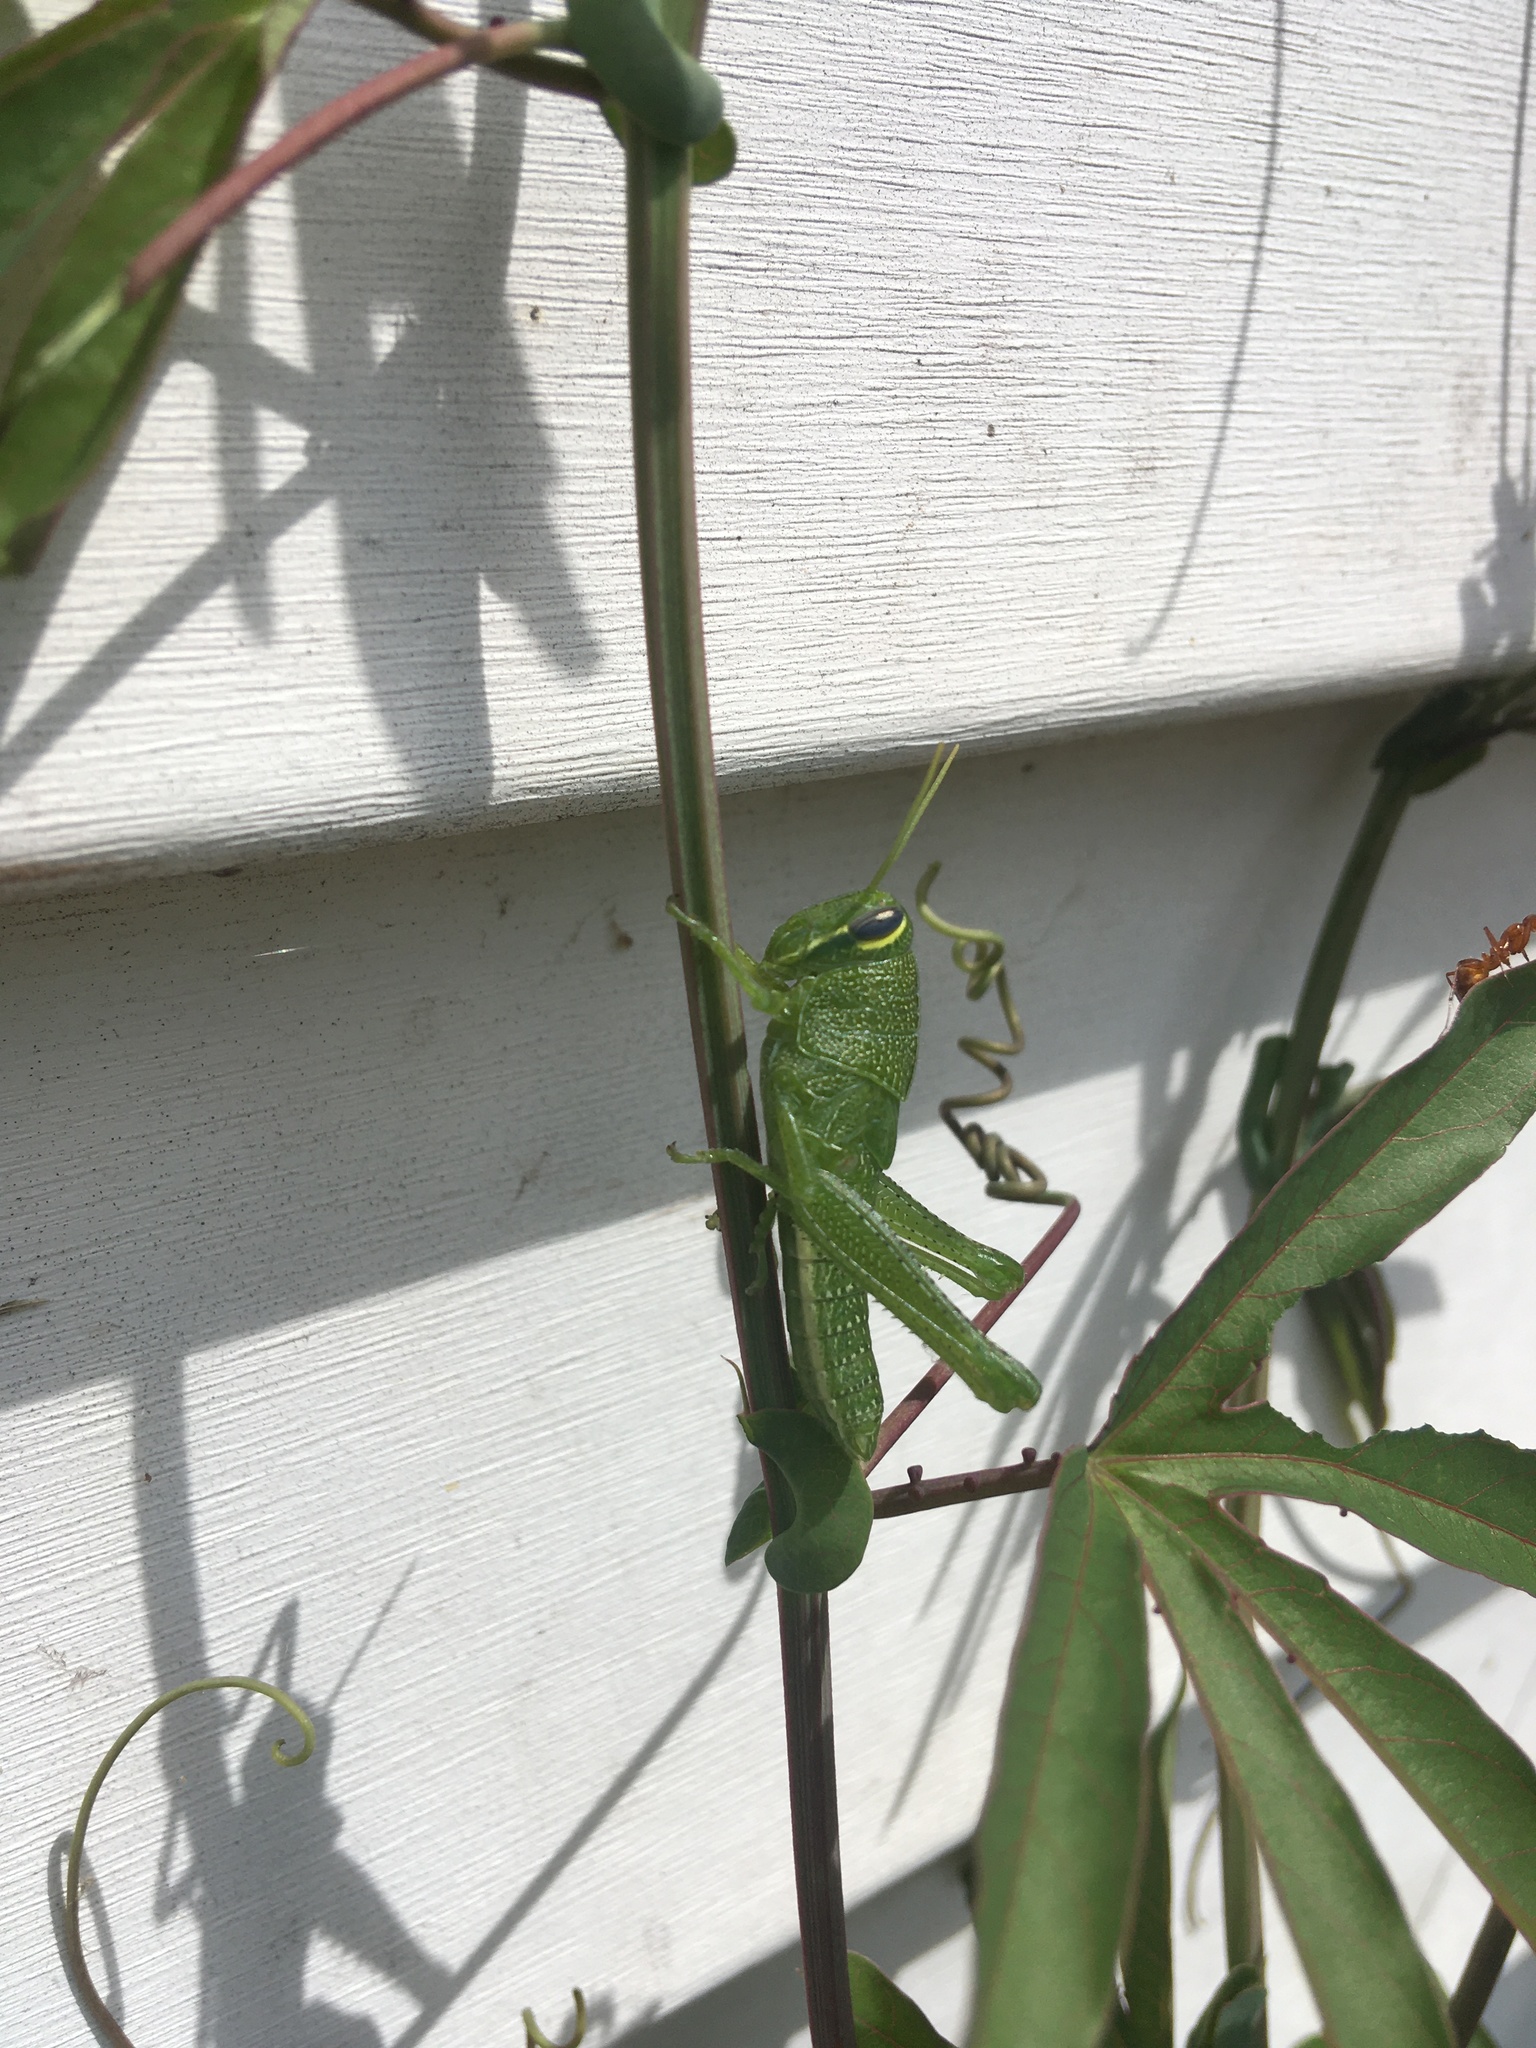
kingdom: Animalia
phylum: Arthropoda
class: Insecta
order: Orthoptera
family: Acrididae
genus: Schistocerca
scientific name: Schistocerca obscura
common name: Obscure bird grasshopper
